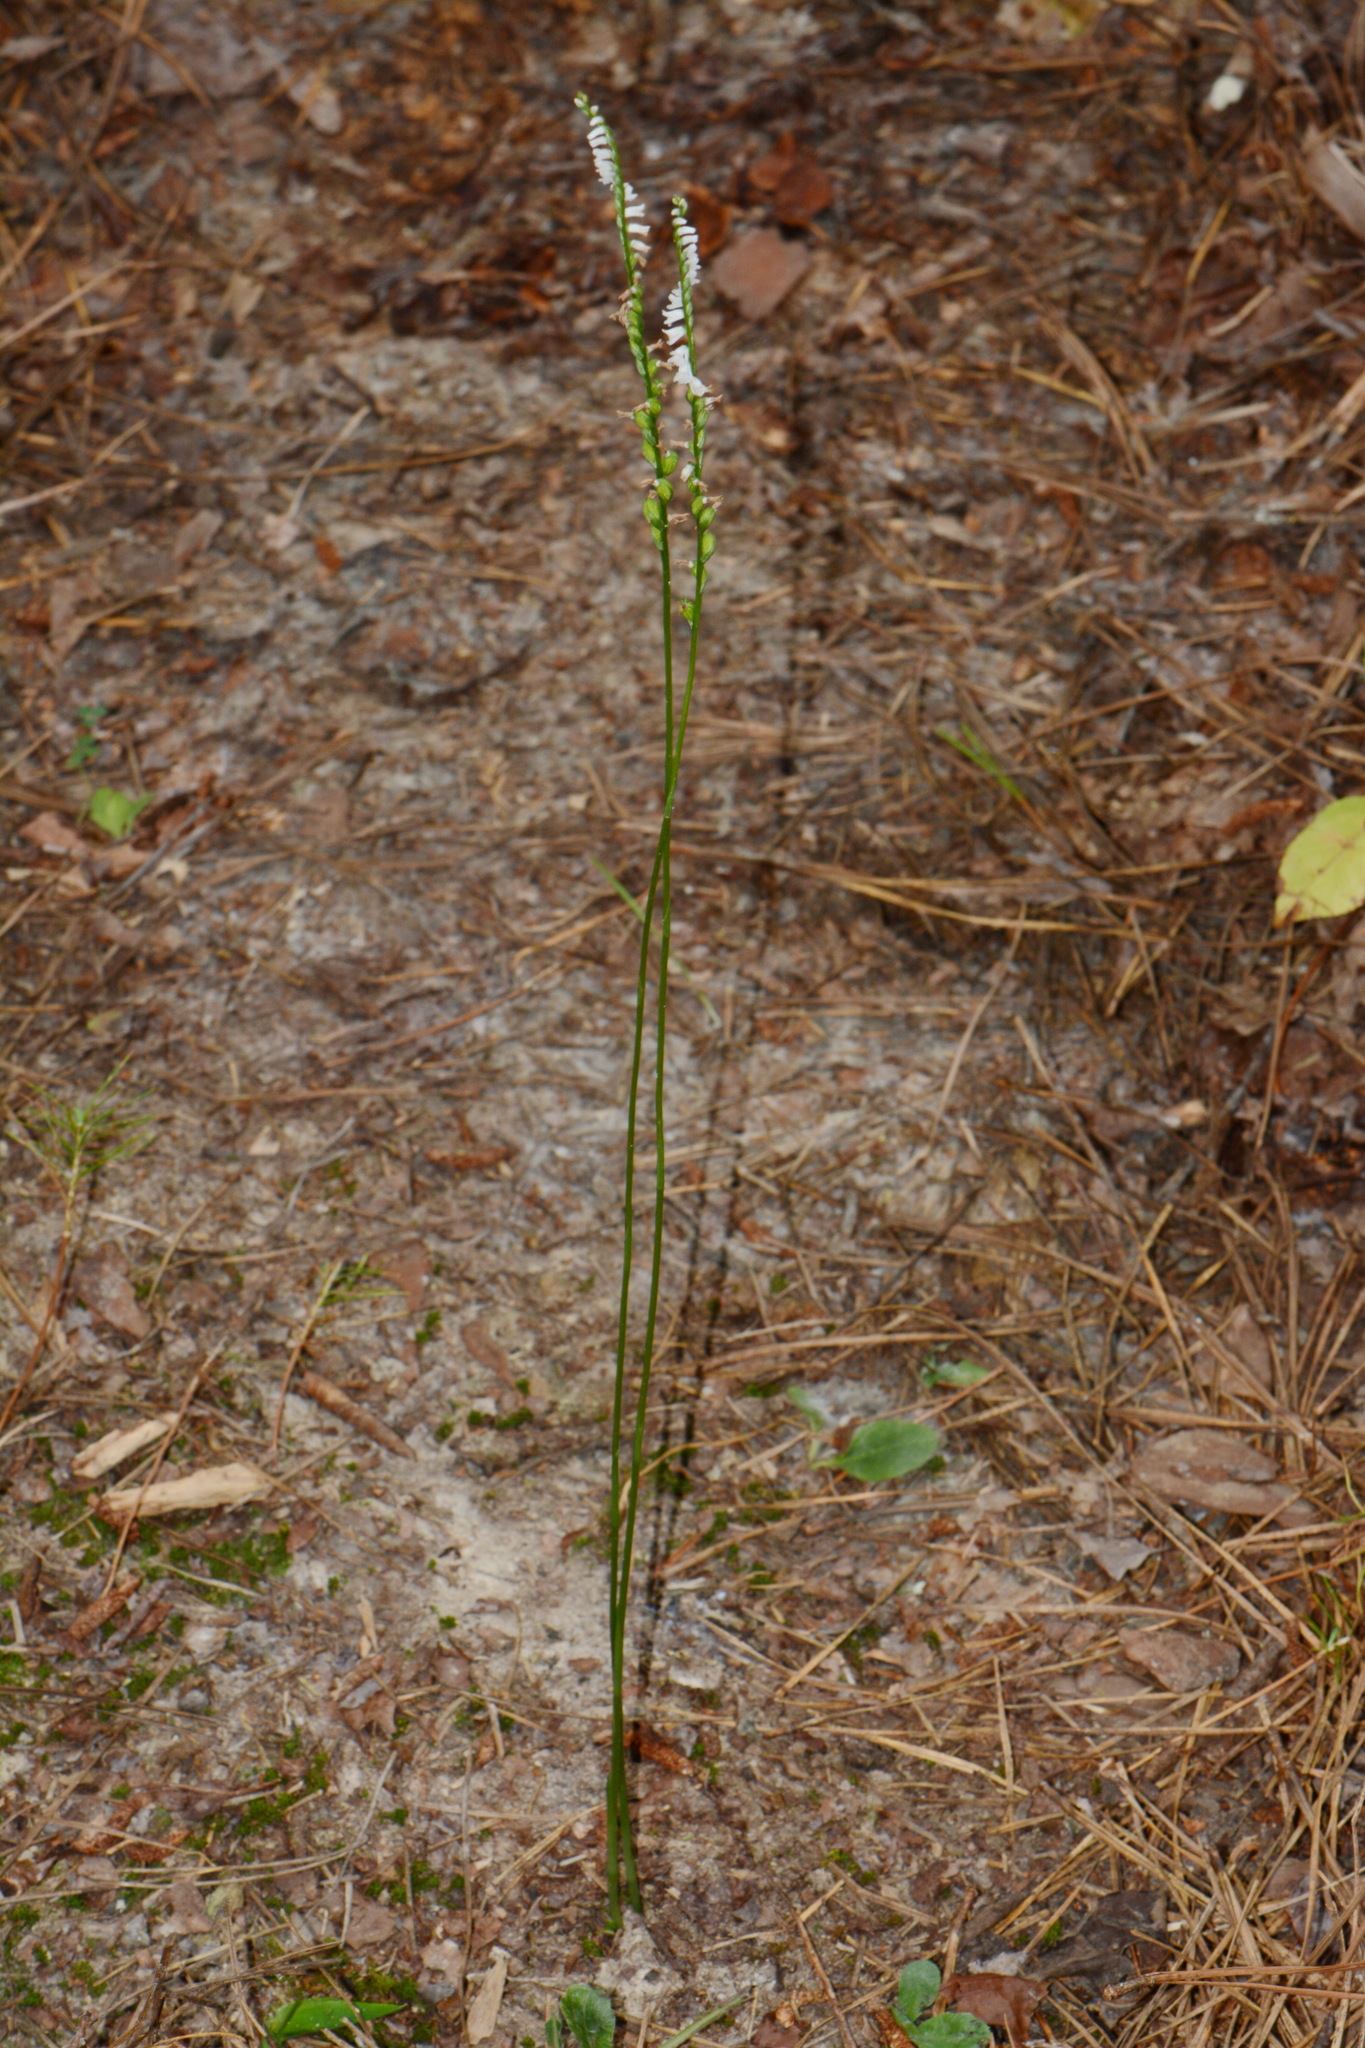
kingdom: Plantae
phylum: Tracheophyta
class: Liliopsida
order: Asparagales
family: Orchidaceae
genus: Spiranthes
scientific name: Spiranthes tuberosa
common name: Little ladies'-tresses
